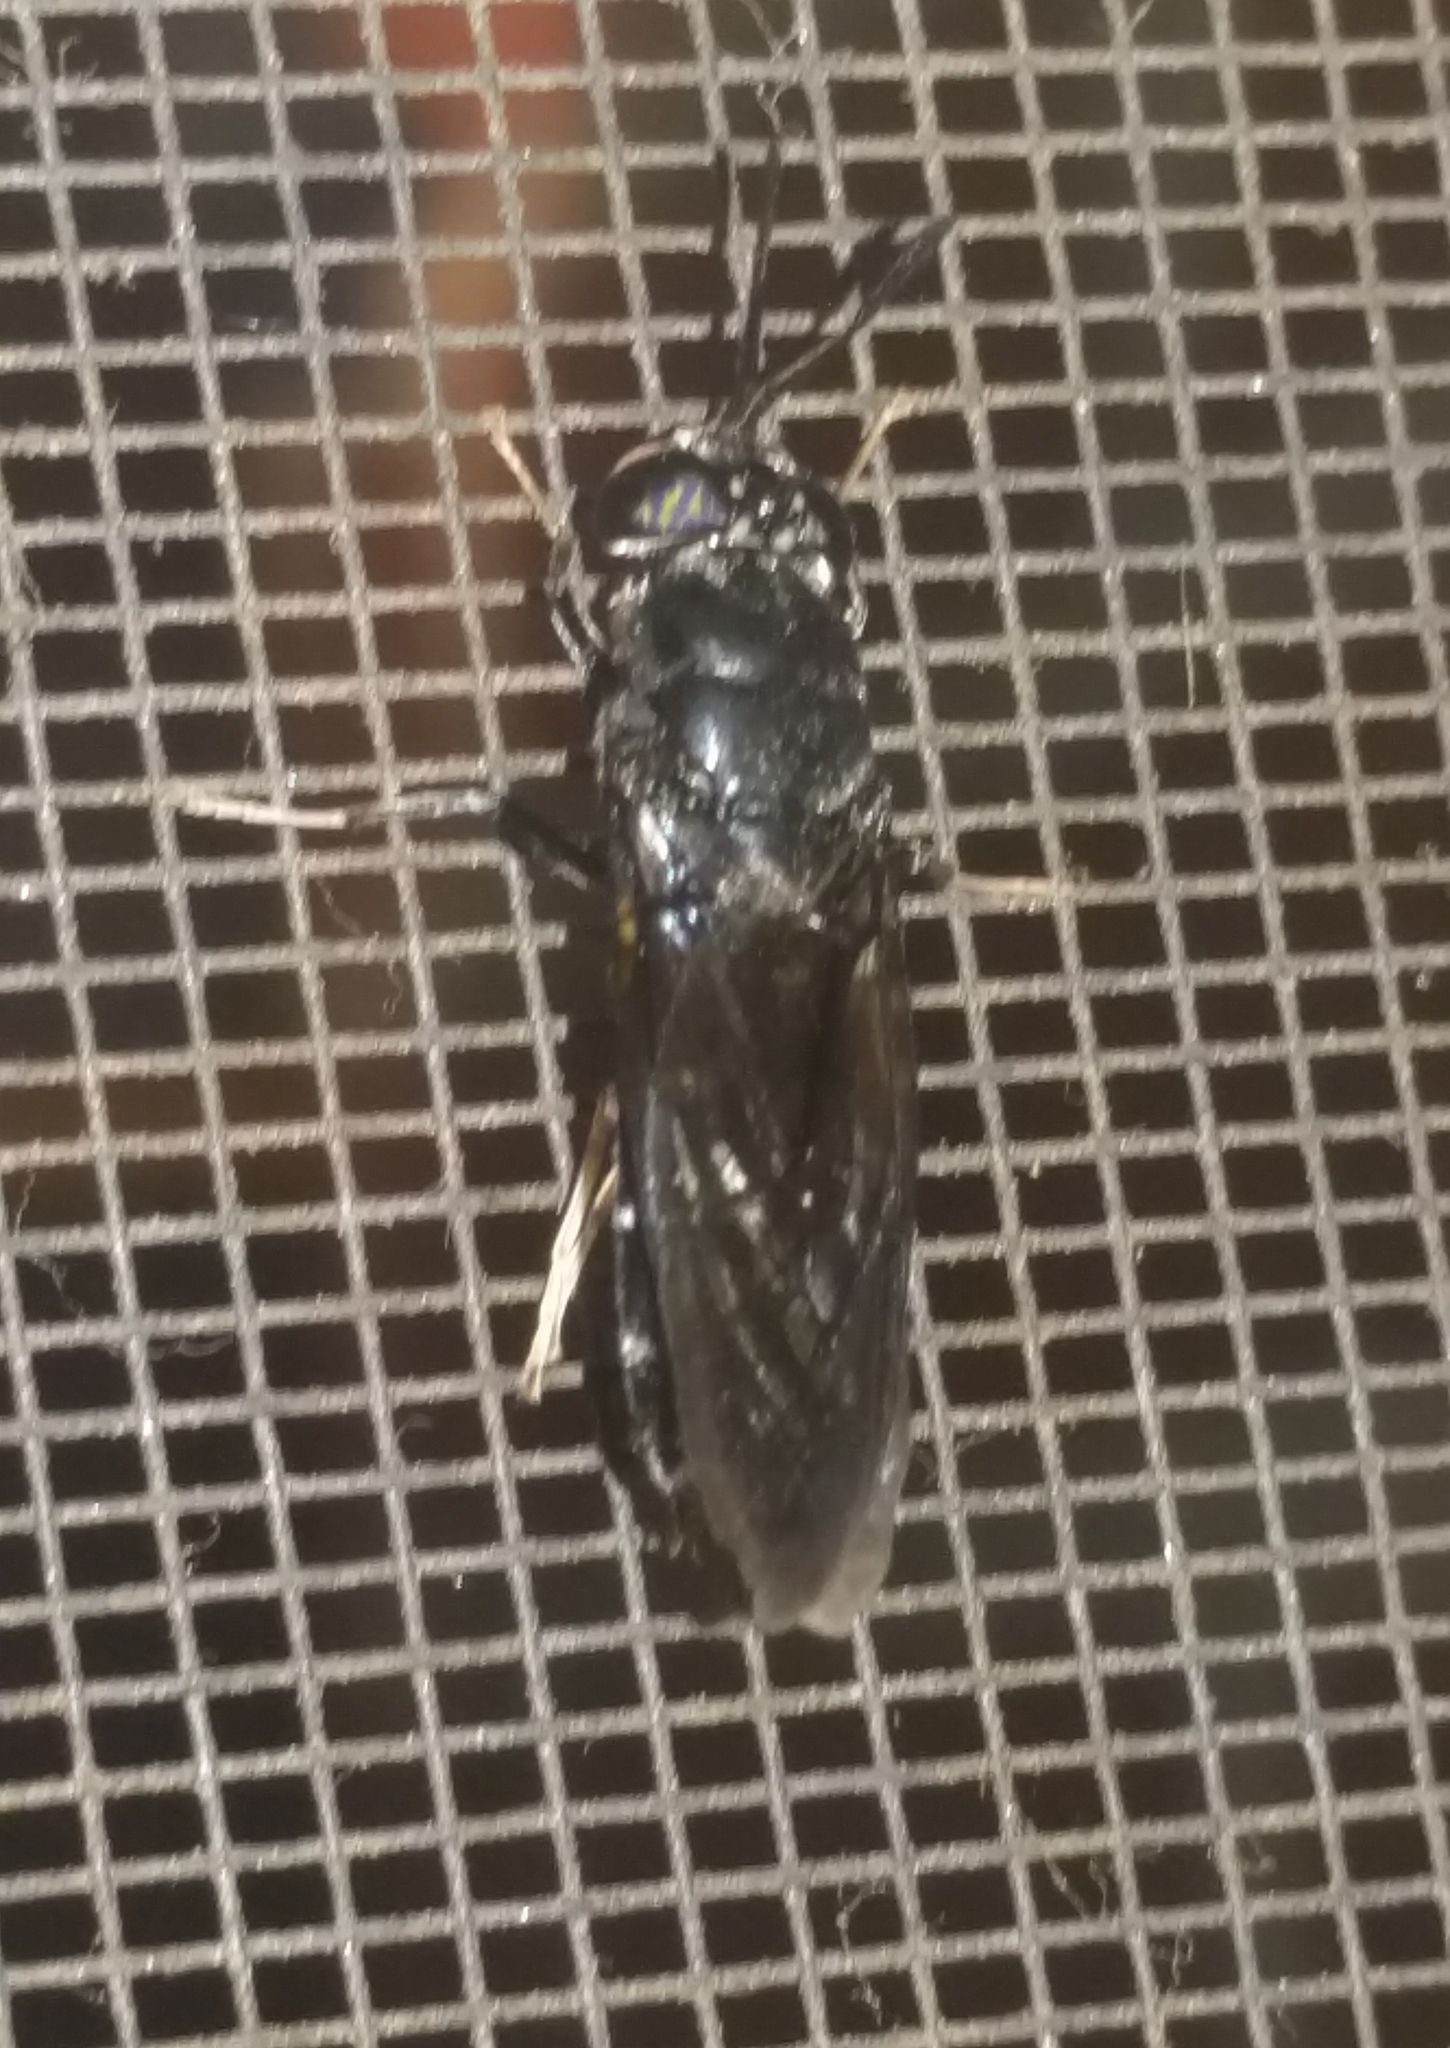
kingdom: Animalia
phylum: Arthropoda
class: Insecta
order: Diptera
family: Stratiomyidae
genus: Hermetia
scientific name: Hermetia illucens
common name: Black soldier fly
